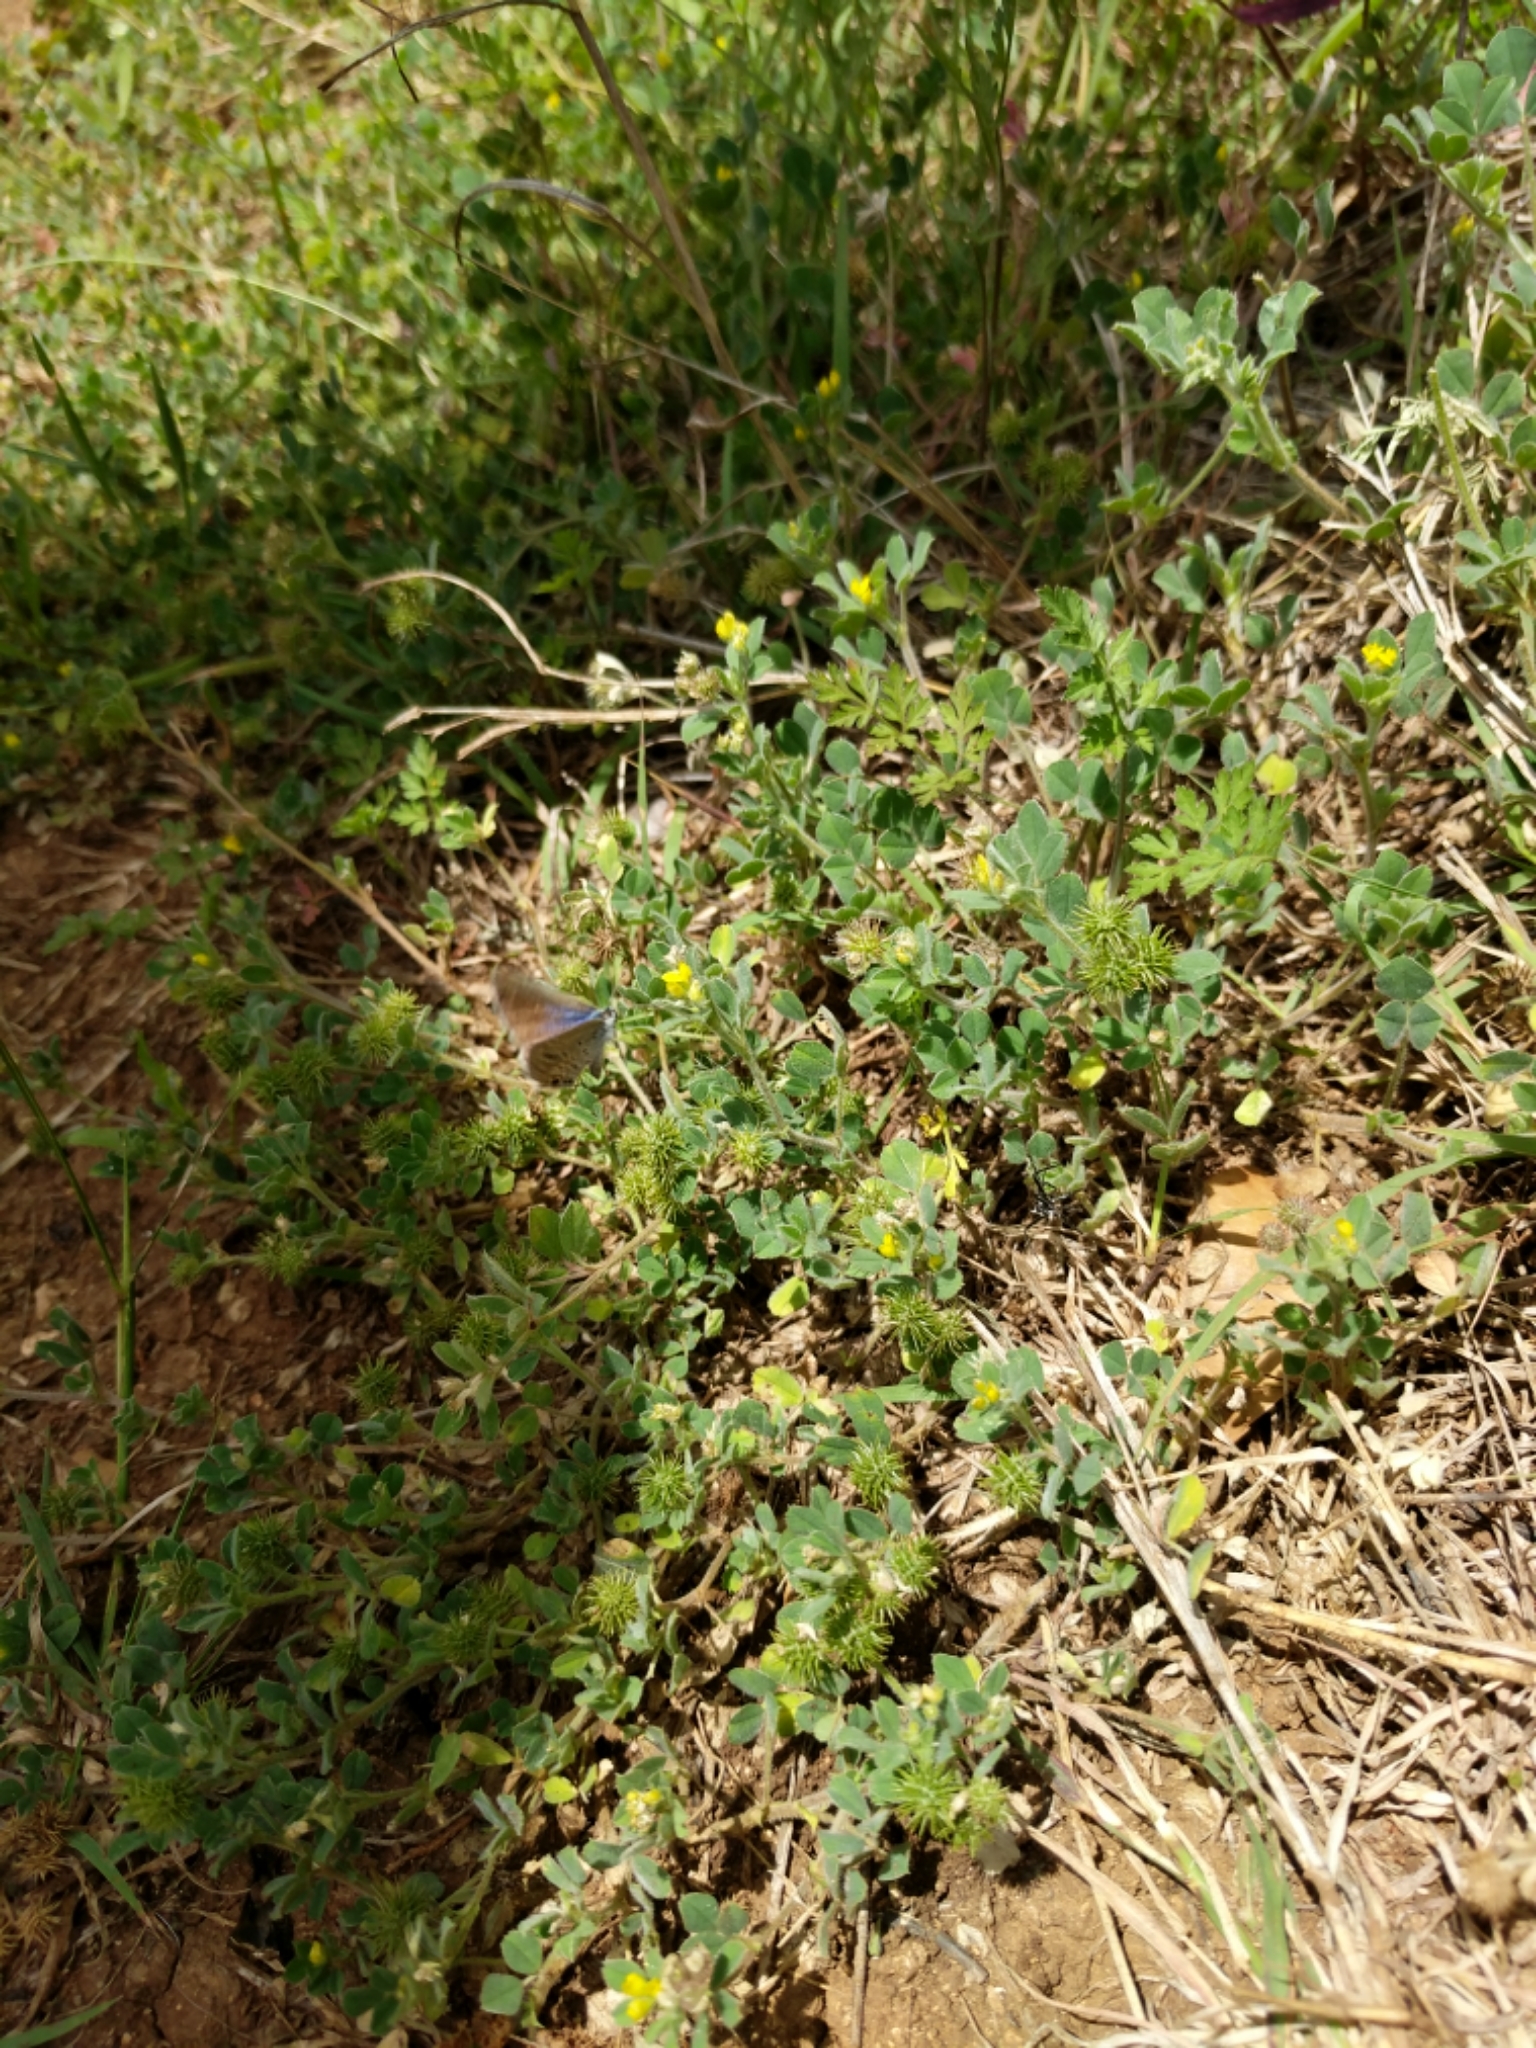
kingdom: Plantae
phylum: Tracheophyta
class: Magnoliopsida
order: Fabales
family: Fabaceae
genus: Medicago
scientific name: Medicago minima
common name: Little bur-clover
